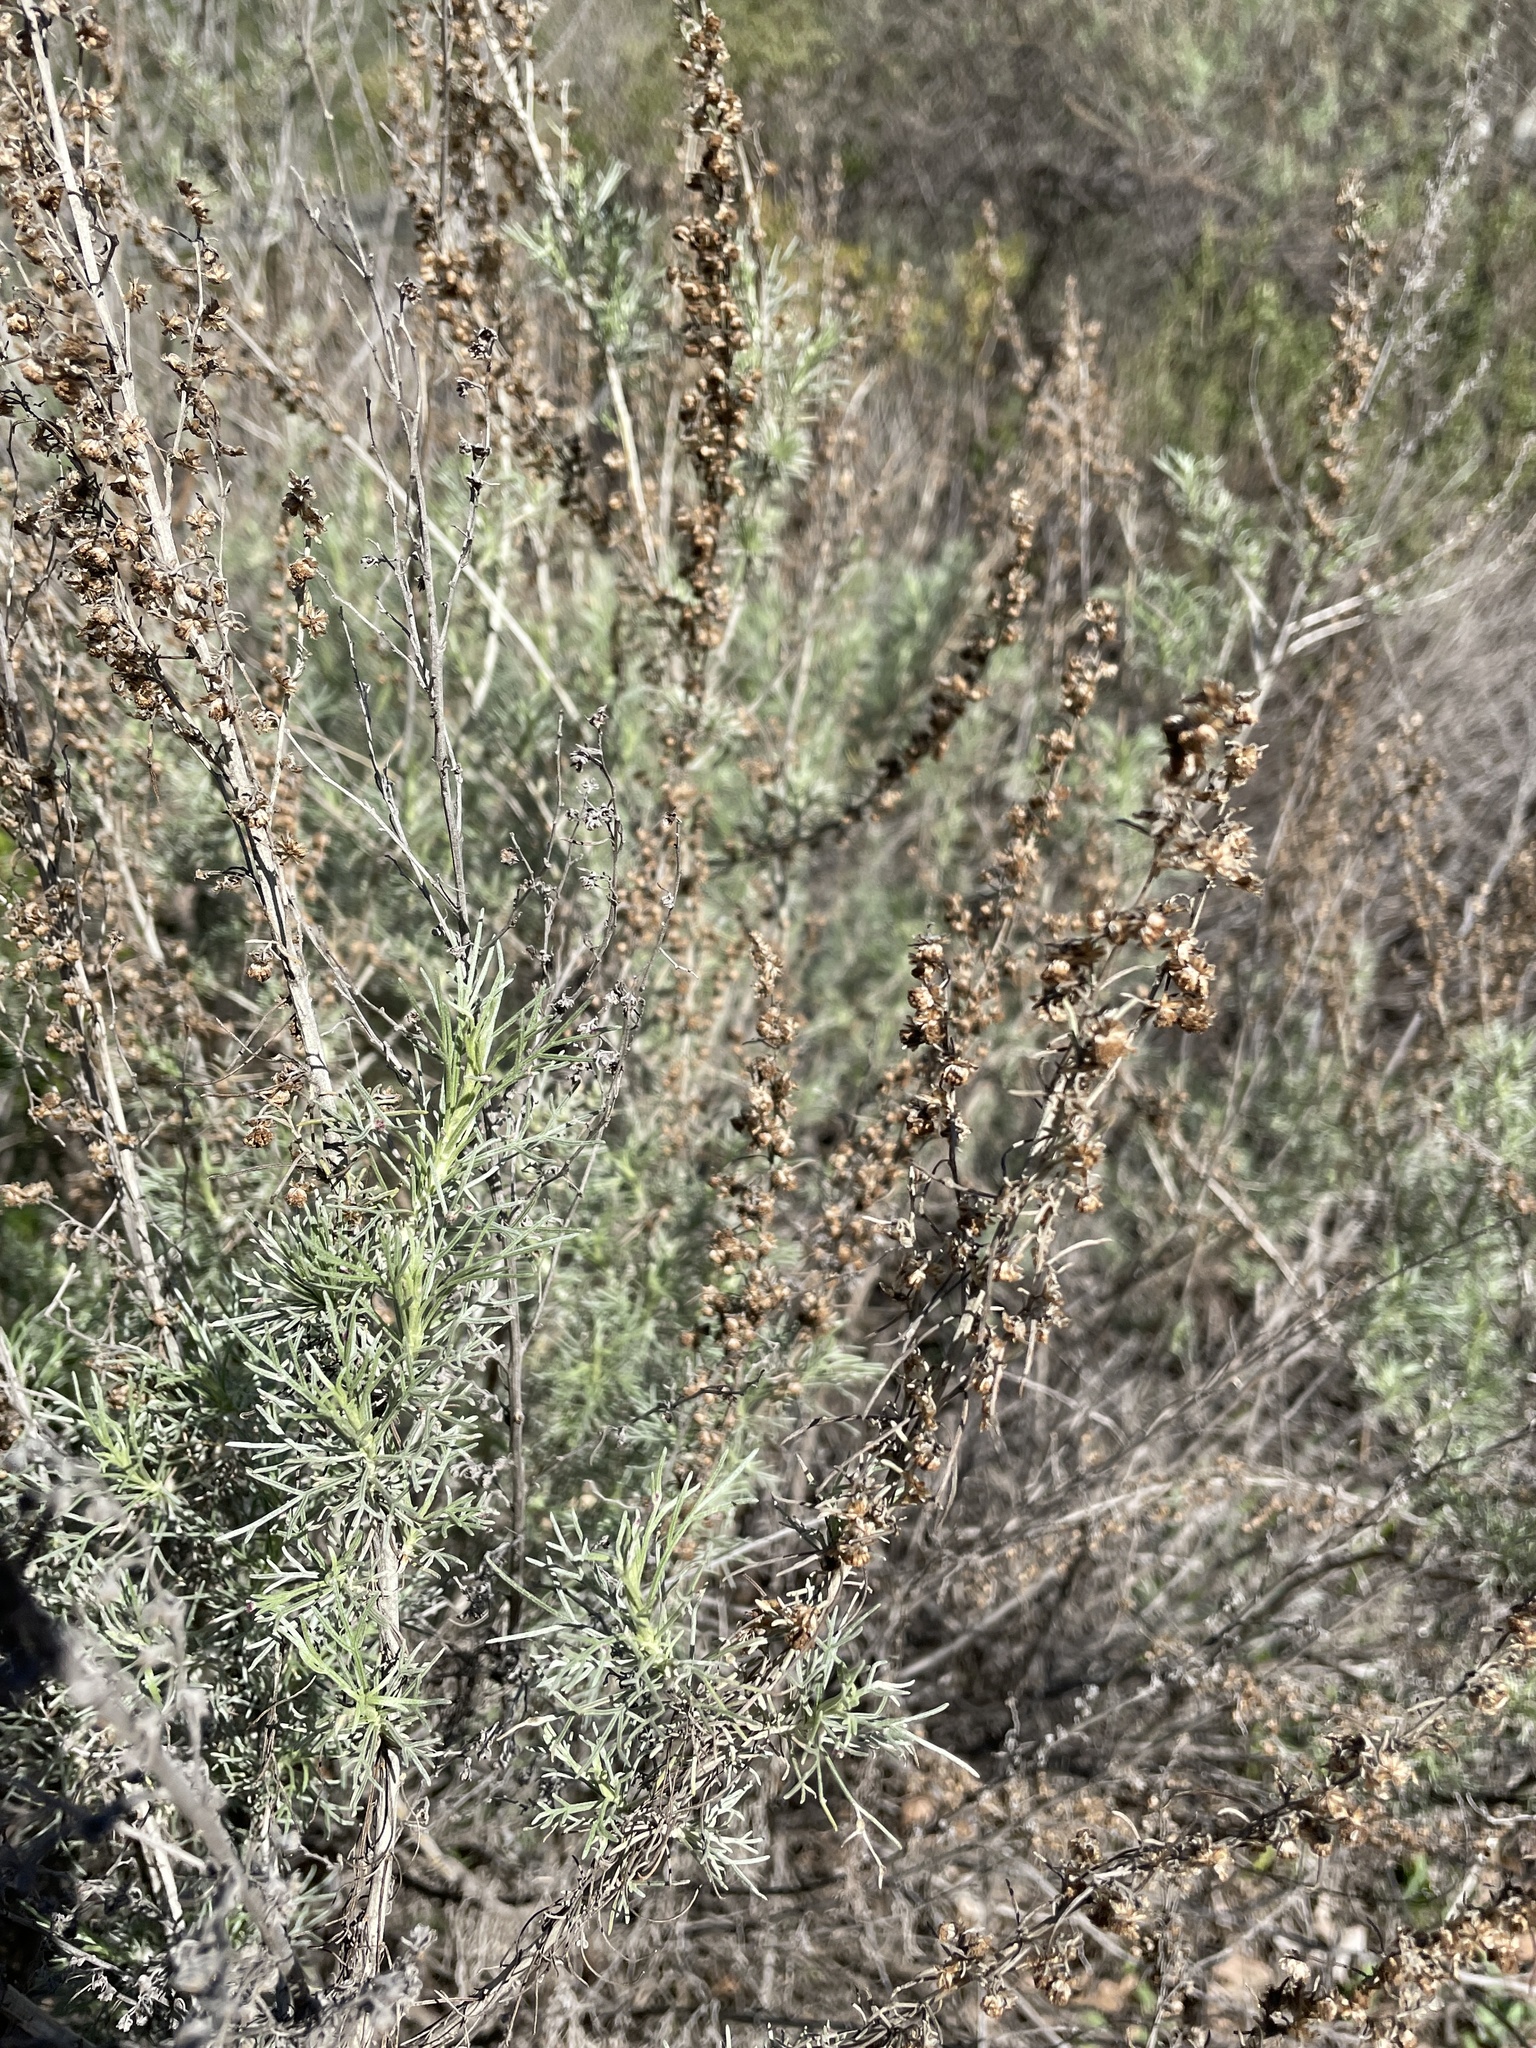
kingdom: Plantae
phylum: Tracheophyta
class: Magnoliopsida
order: Asterales
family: Asteraceae
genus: Artemisia
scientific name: Artemisia californica
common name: California sagebrush
